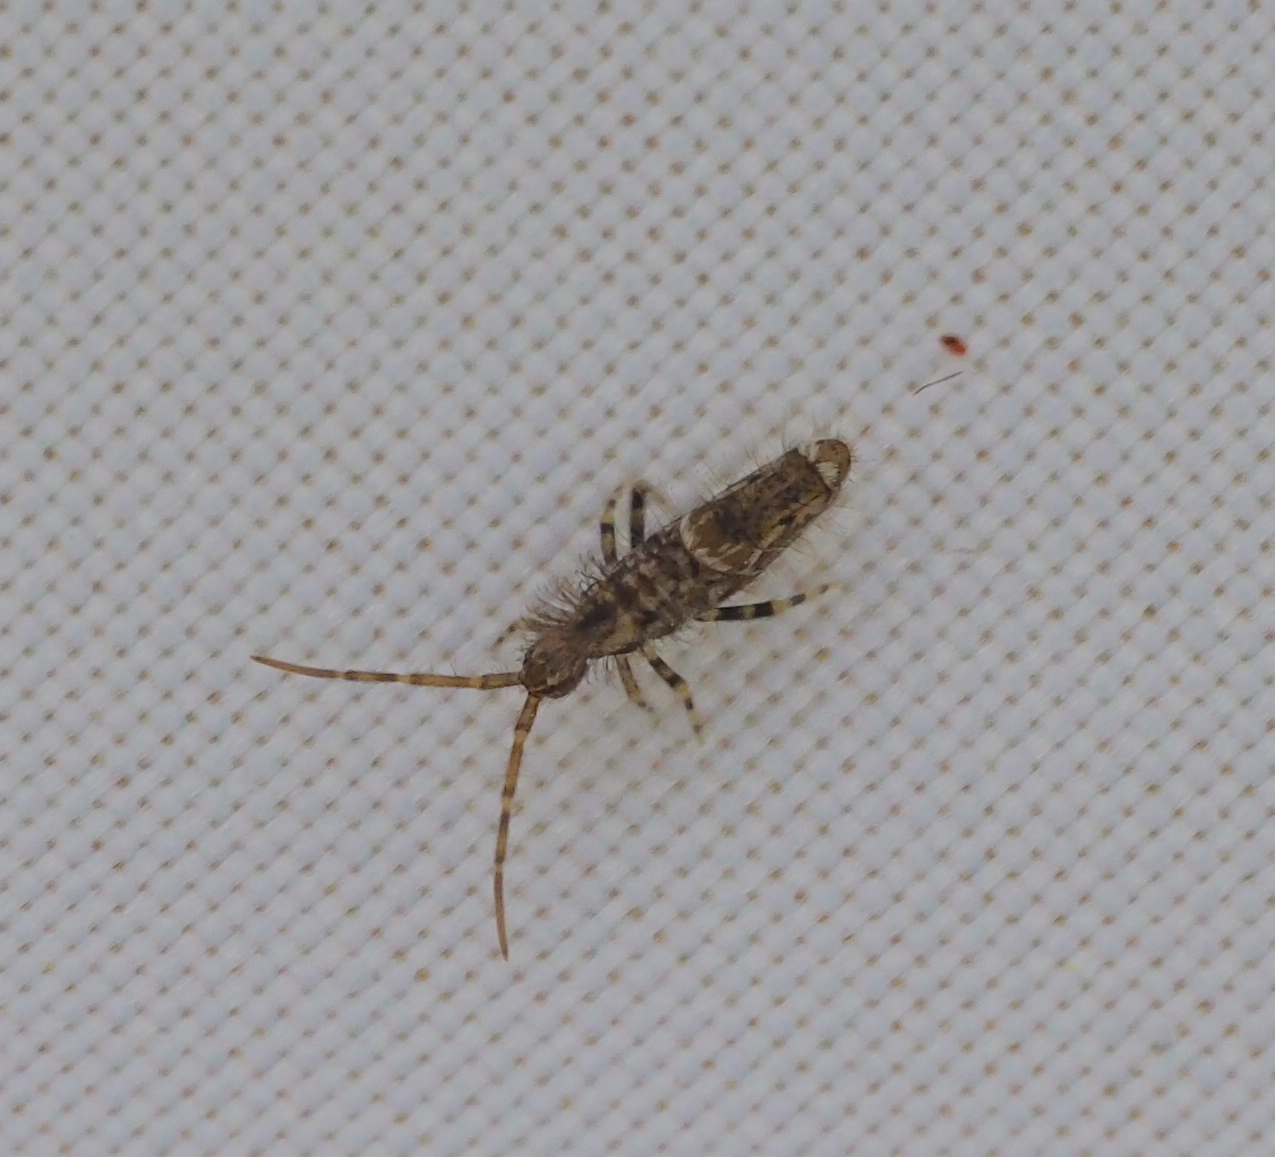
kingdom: Animalia
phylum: Arthropoda
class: Collembola
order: Entomobryomorpha
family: Entomobryidae
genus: Entomobrya
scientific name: Entomobrya dorsalis
